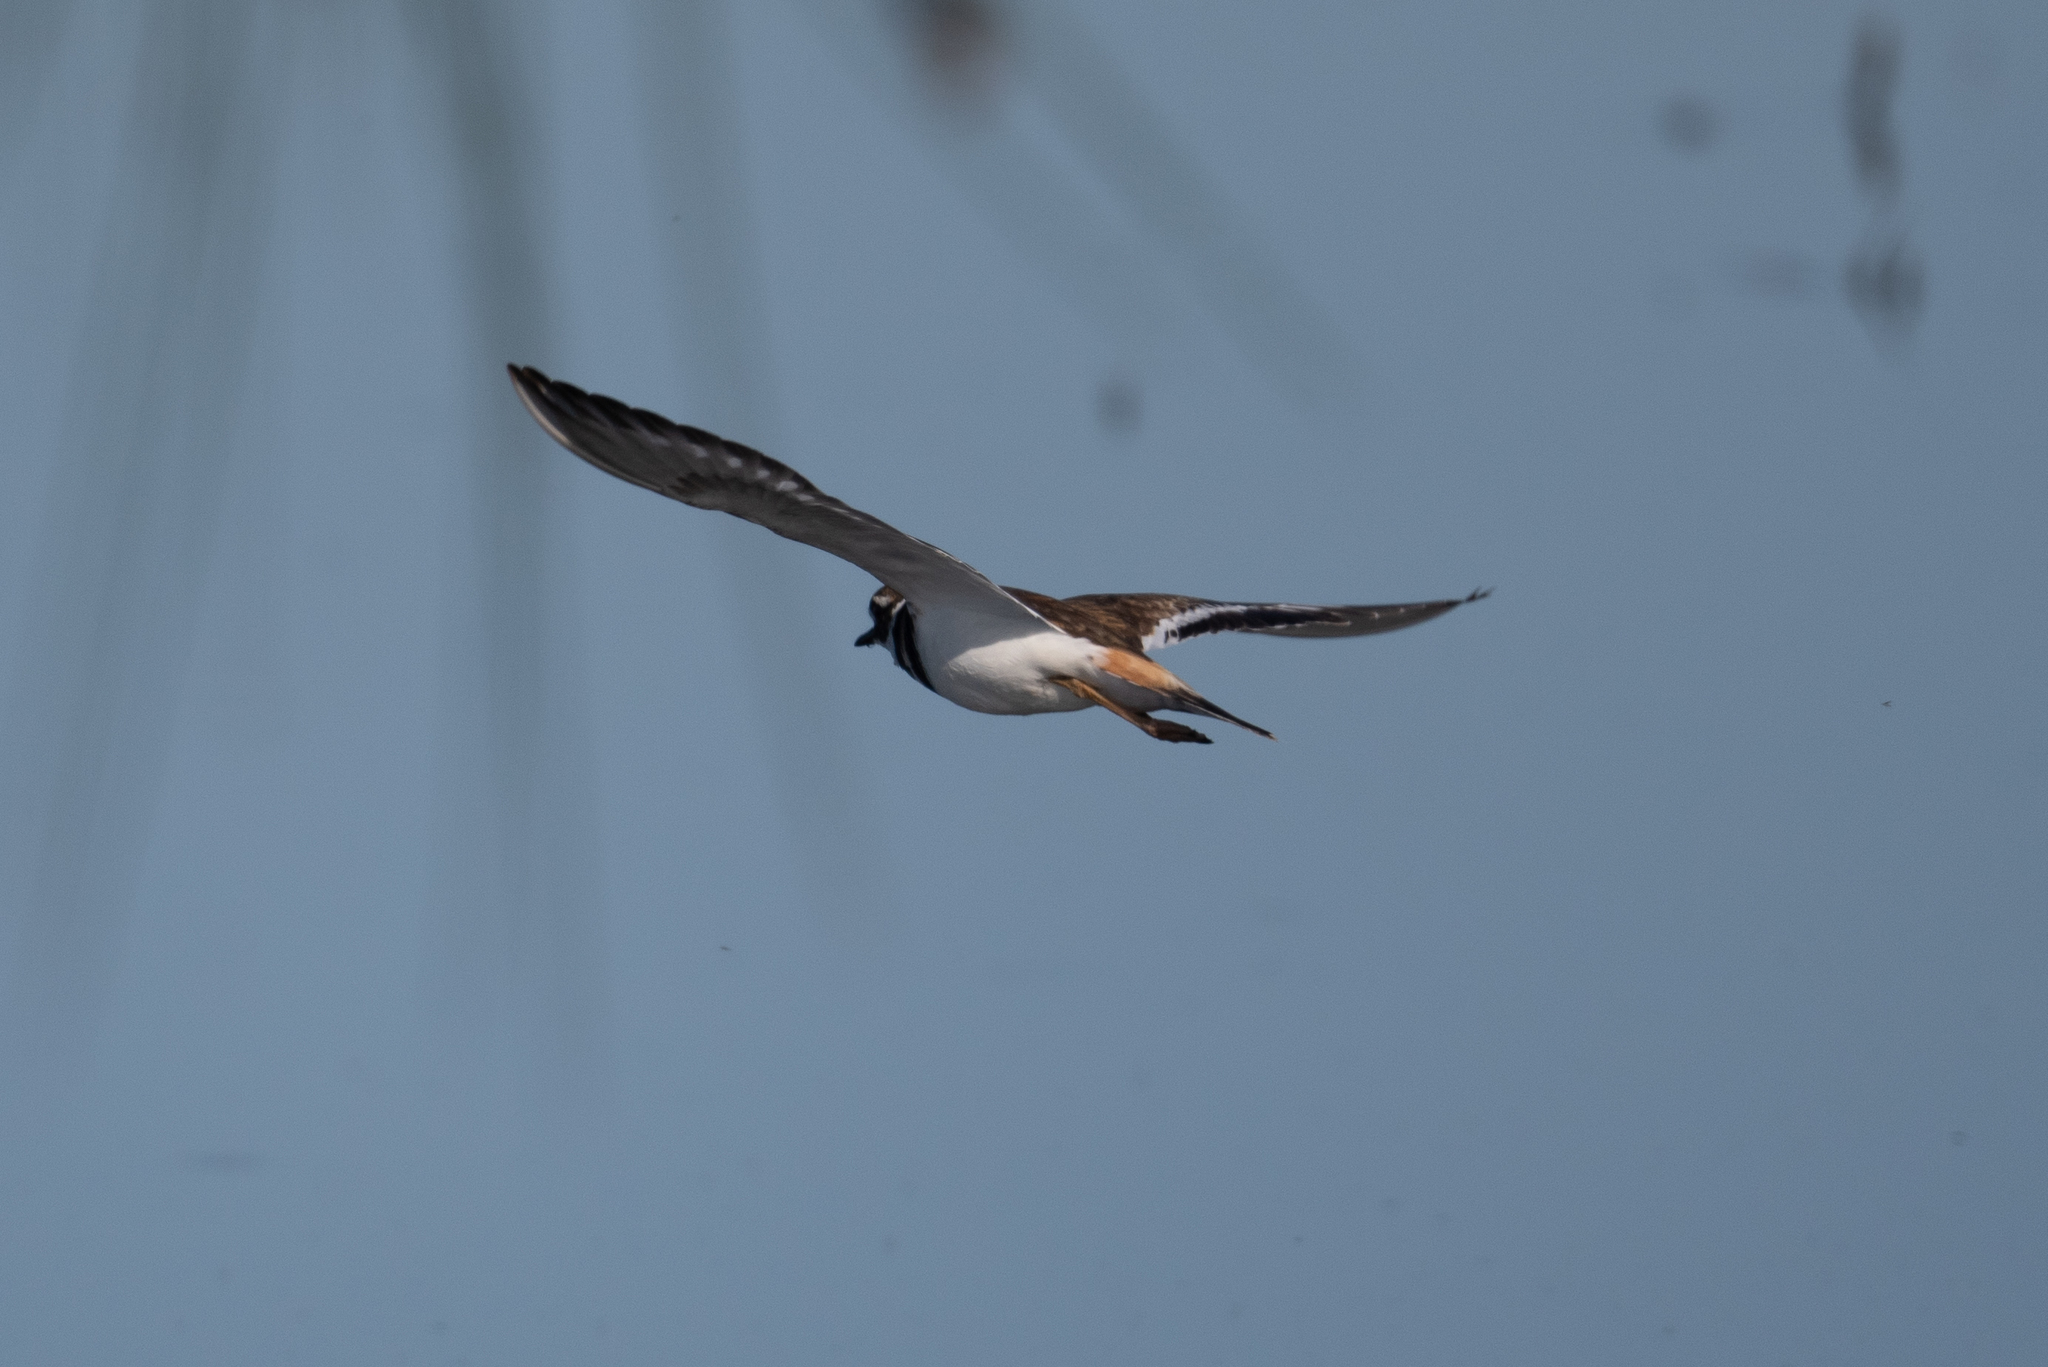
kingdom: Animalia
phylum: Chordata
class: Aves
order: Charadriiformes
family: Charadriidae
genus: Charadrius
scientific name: Charadrius vociferus
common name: Killdeer
